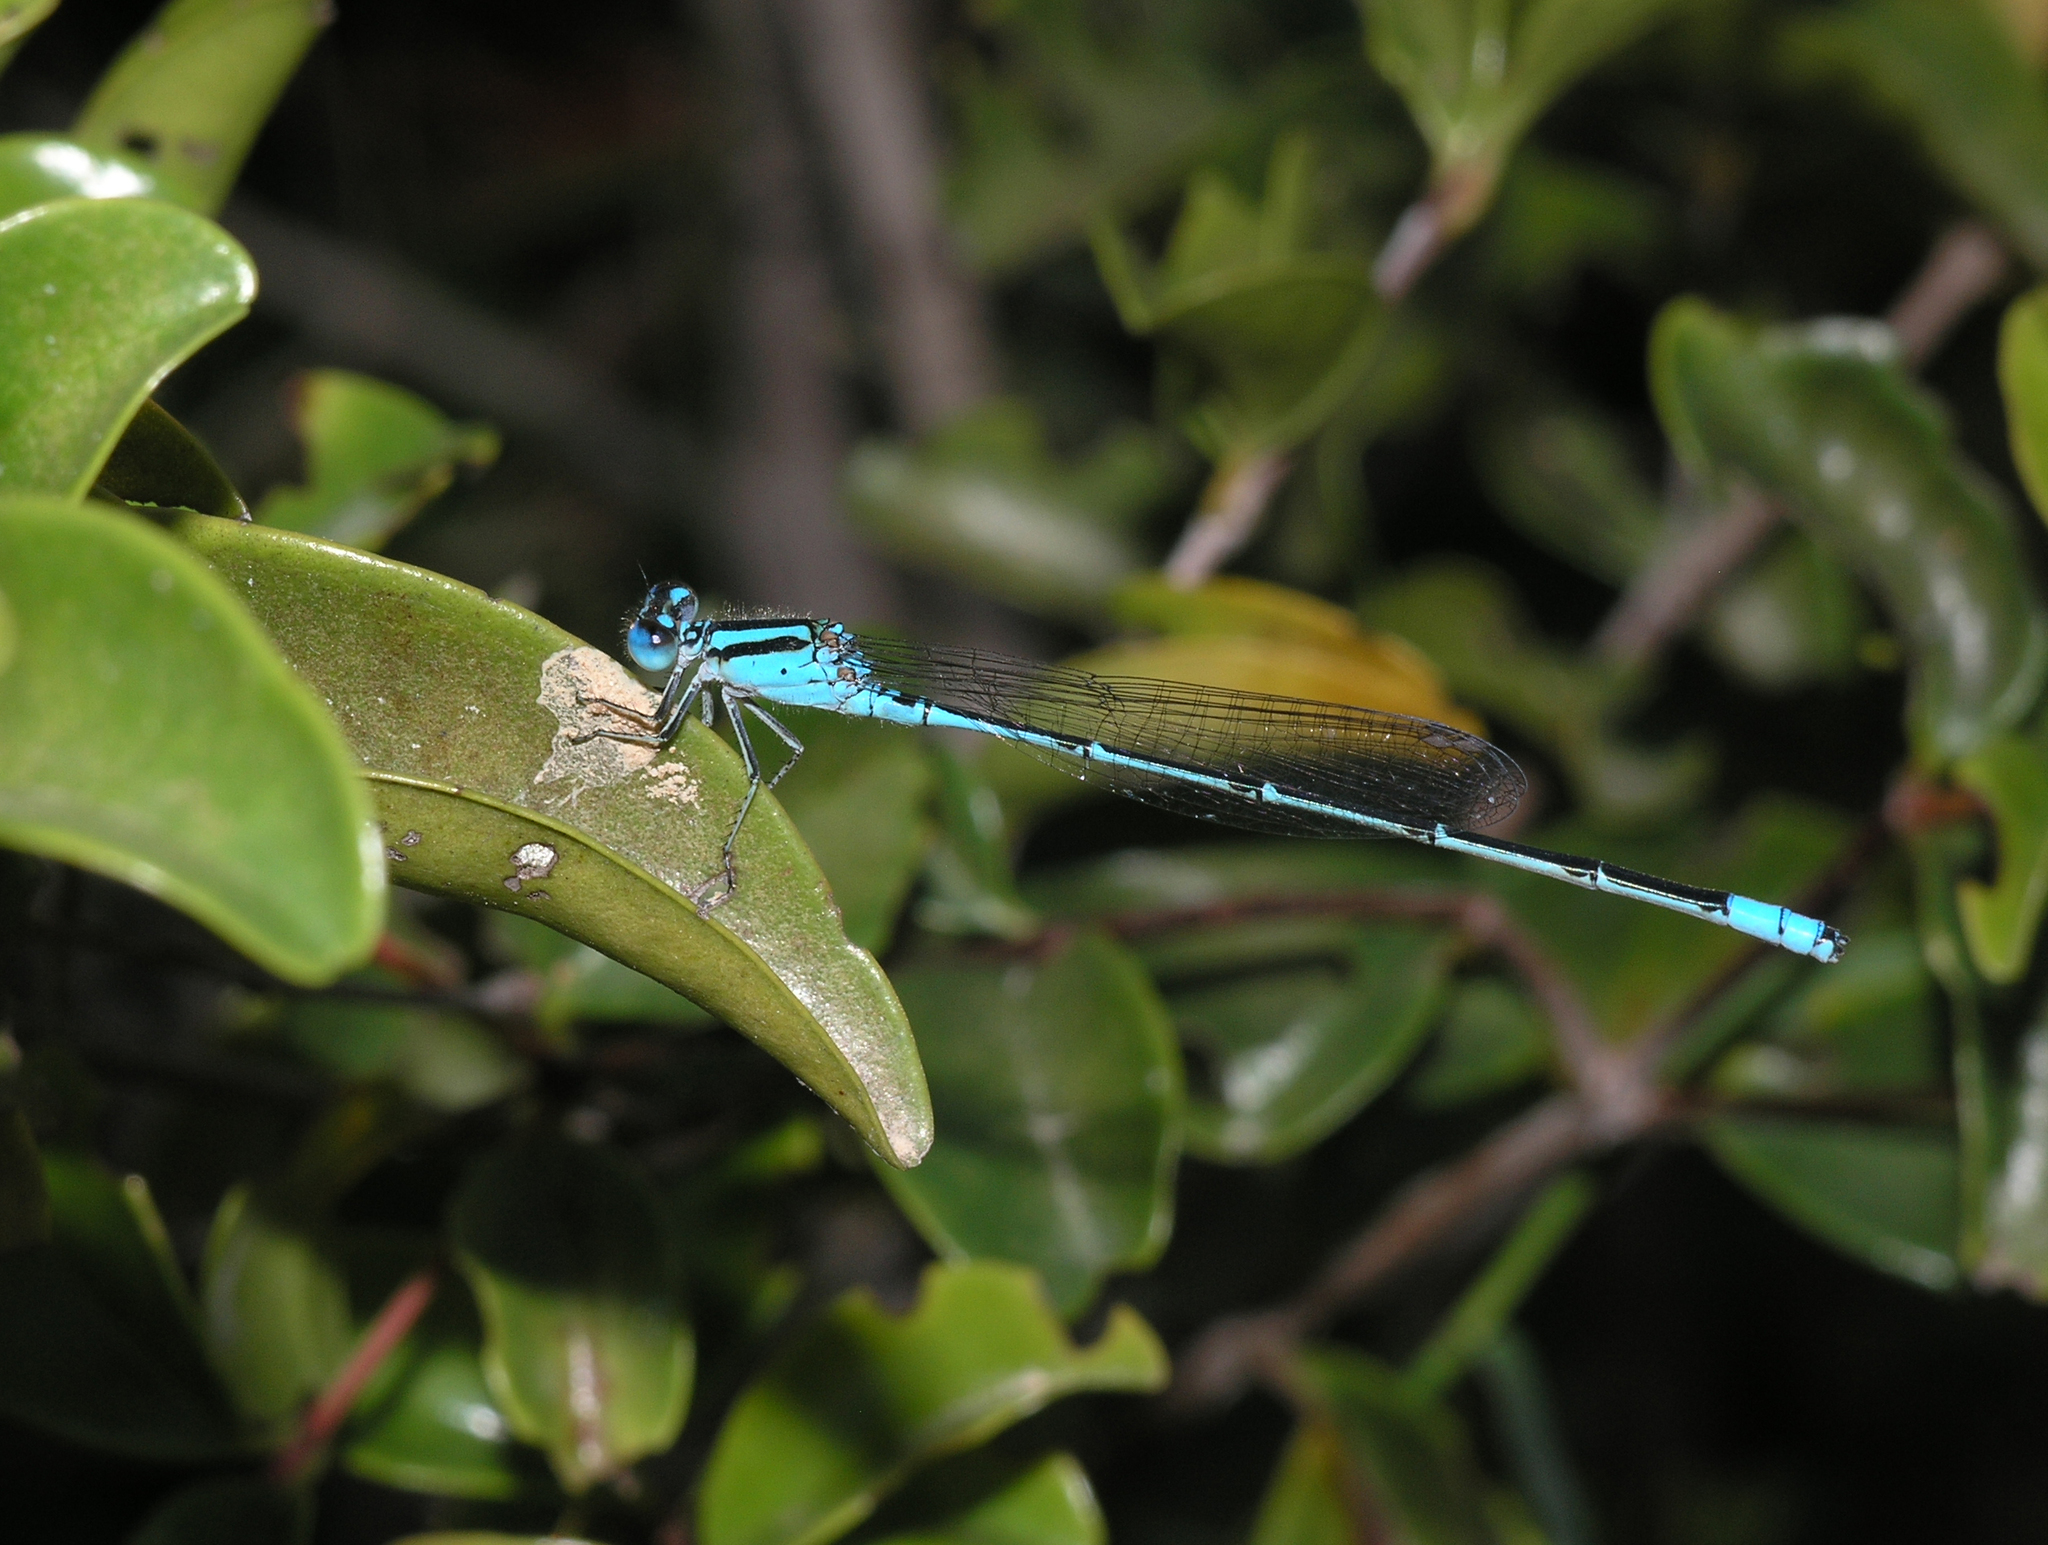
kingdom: Animalia
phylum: Arthropoda
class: Insecta
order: Odonata
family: Coenagrionidae
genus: Pseudagrion
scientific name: Pseudagrion australasiae
